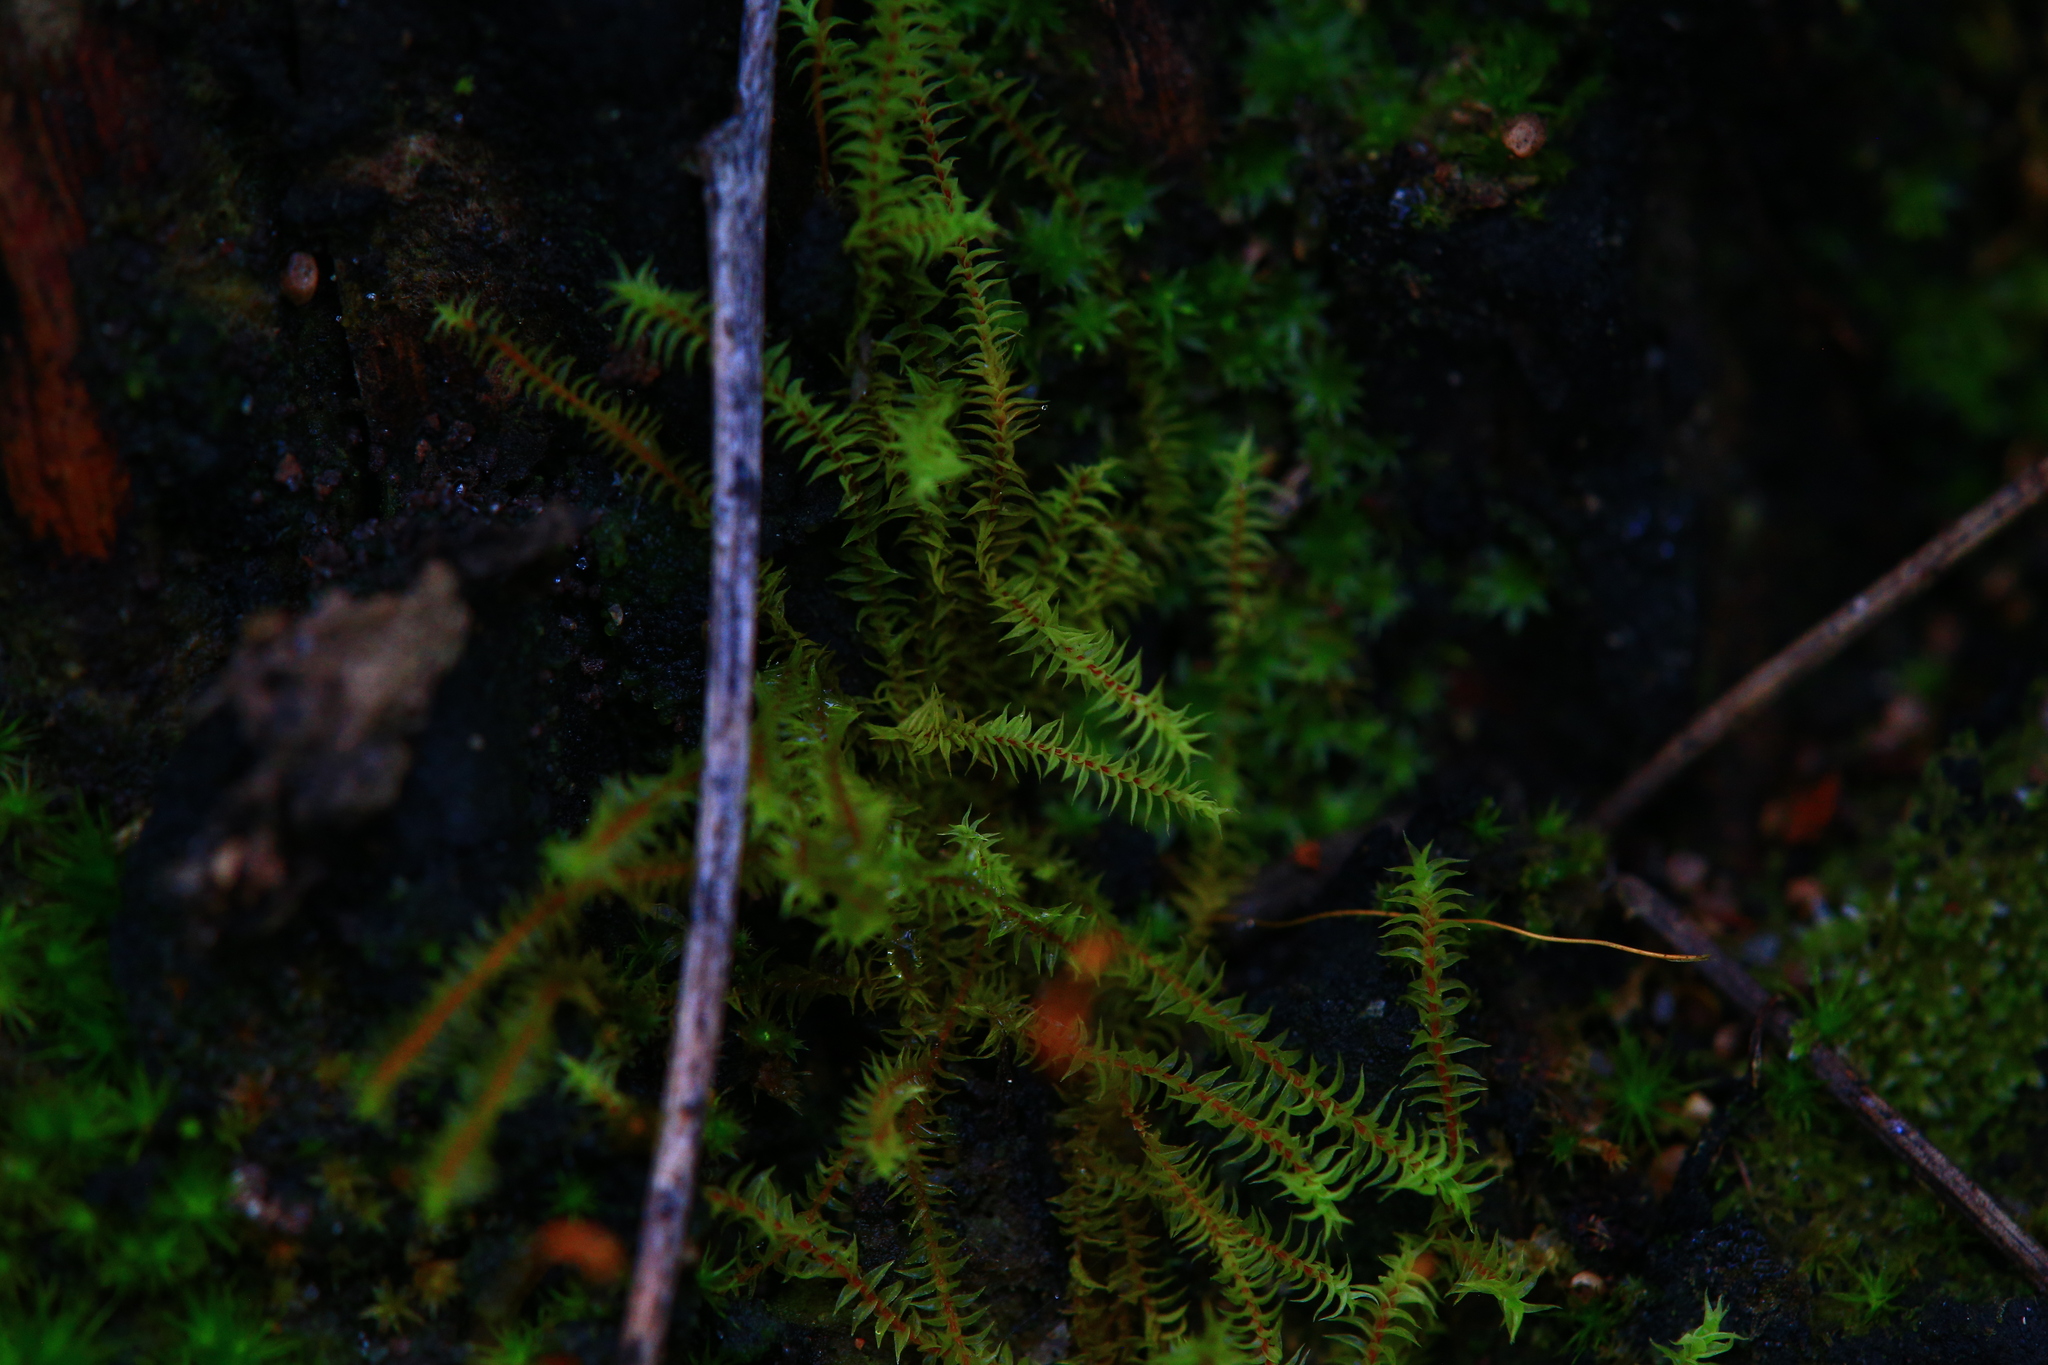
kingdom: Plantae
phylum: Bryophyta
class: Bryopsida
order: Pottiales
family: Pottiaceae
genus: Triquetrella
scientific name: Triquetrella papillata
